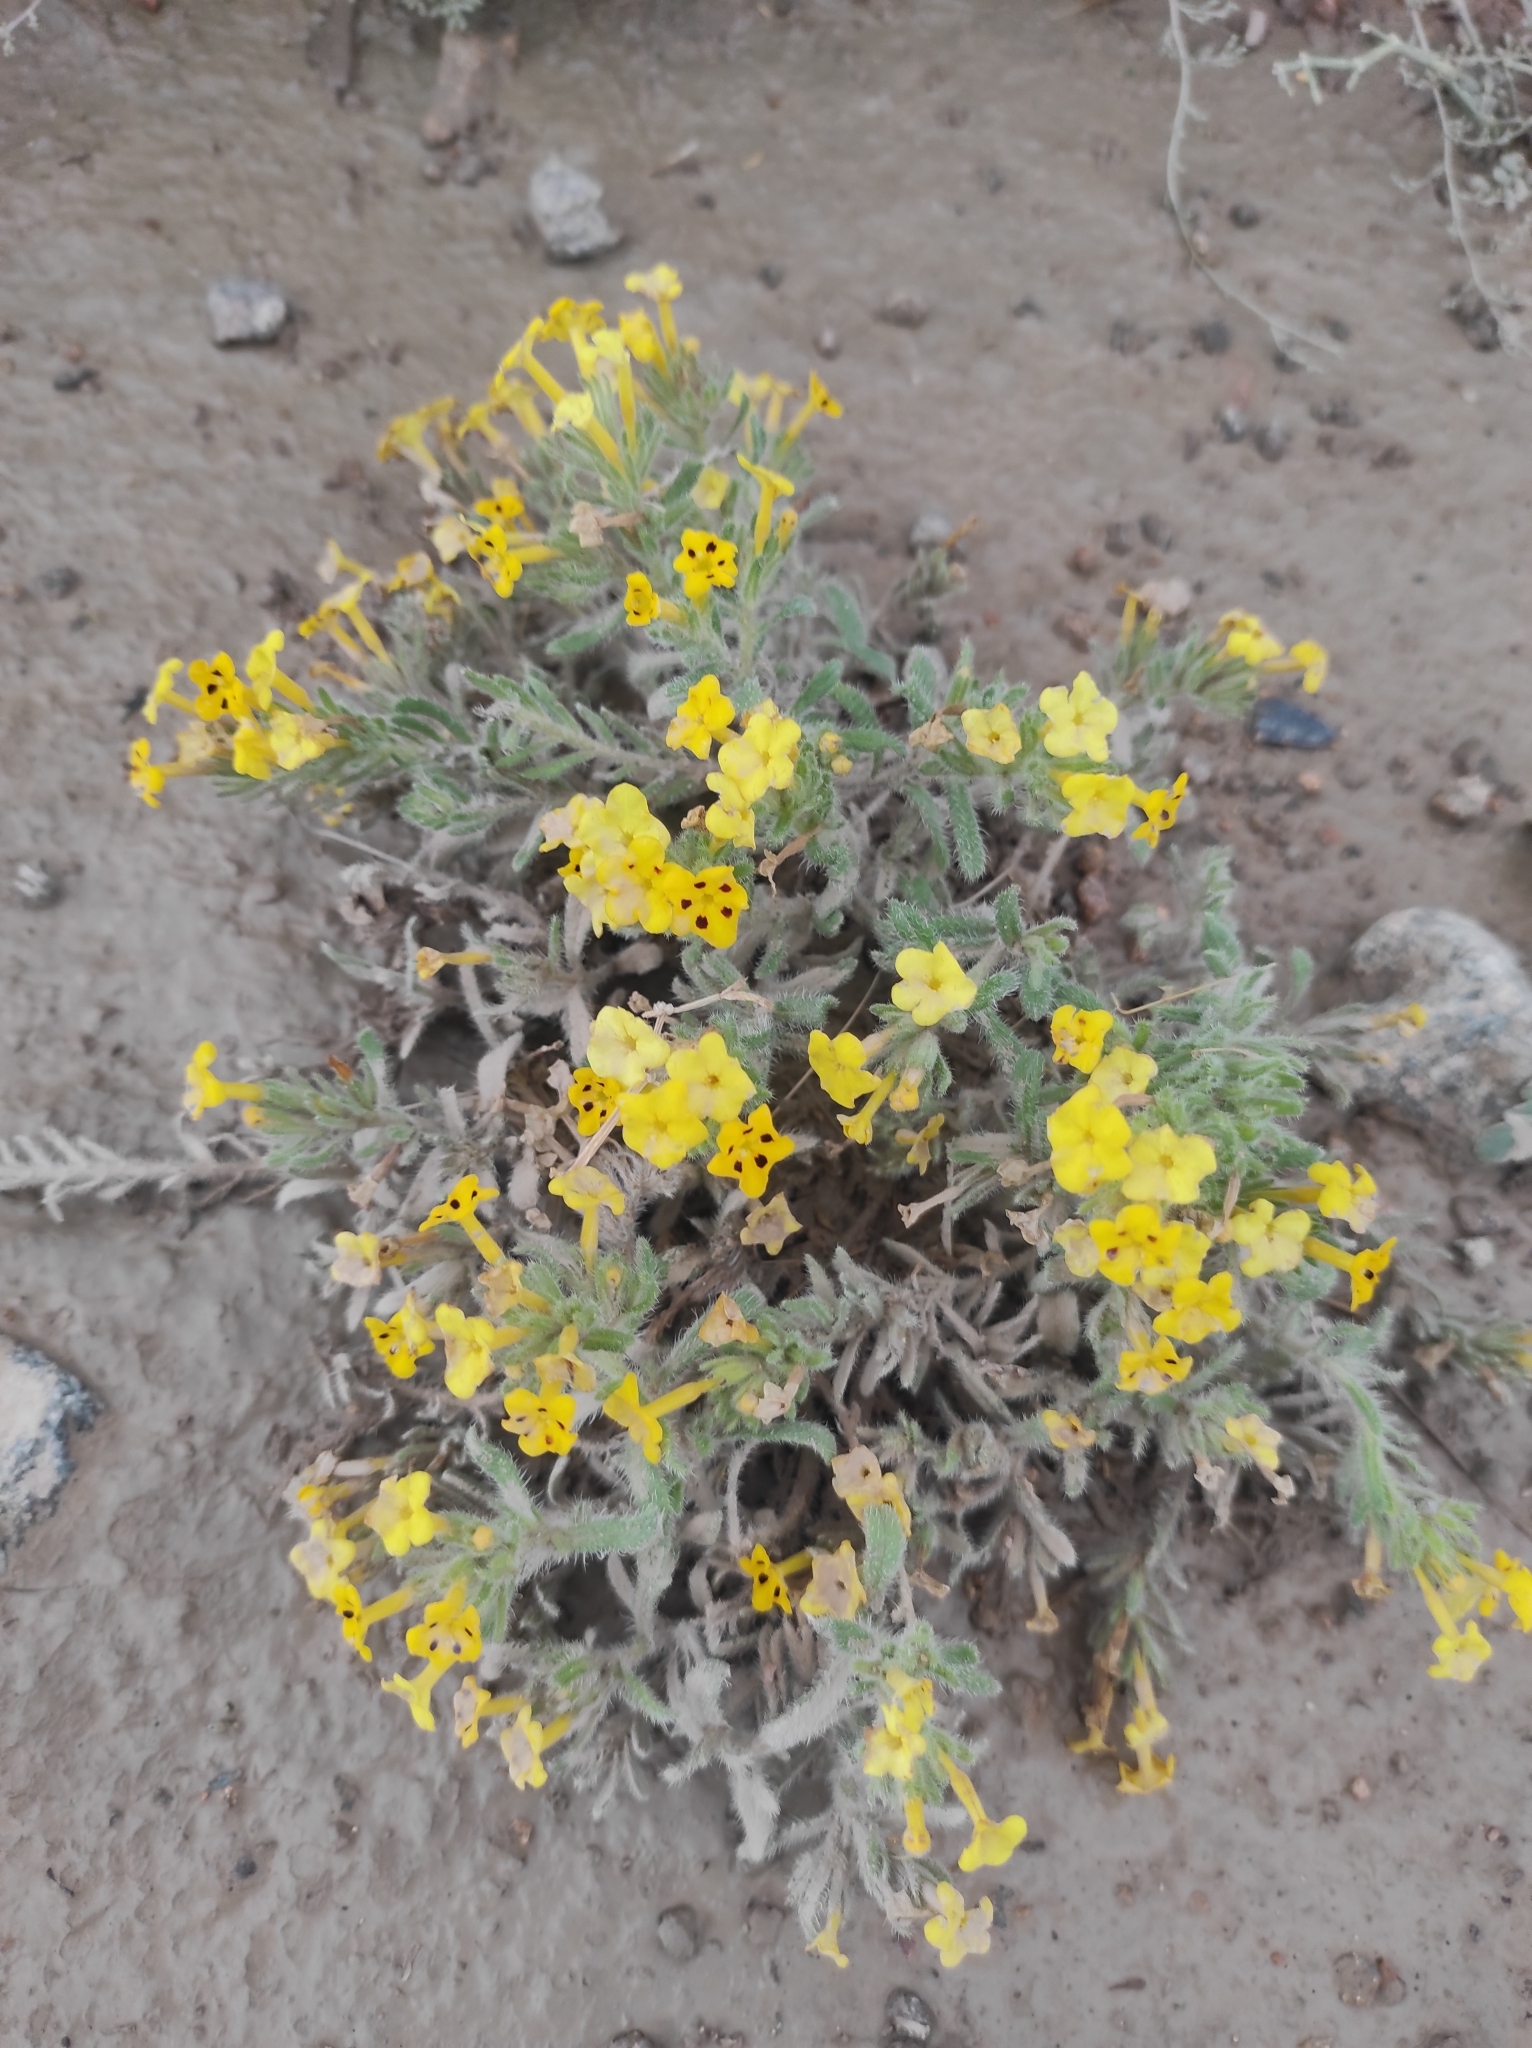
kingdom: Plantae
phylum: Tracheophyta
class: Magnoliopsida
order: Boraginales
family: Boraginaceae
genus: Arnebia
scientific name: Arnebia guttata
